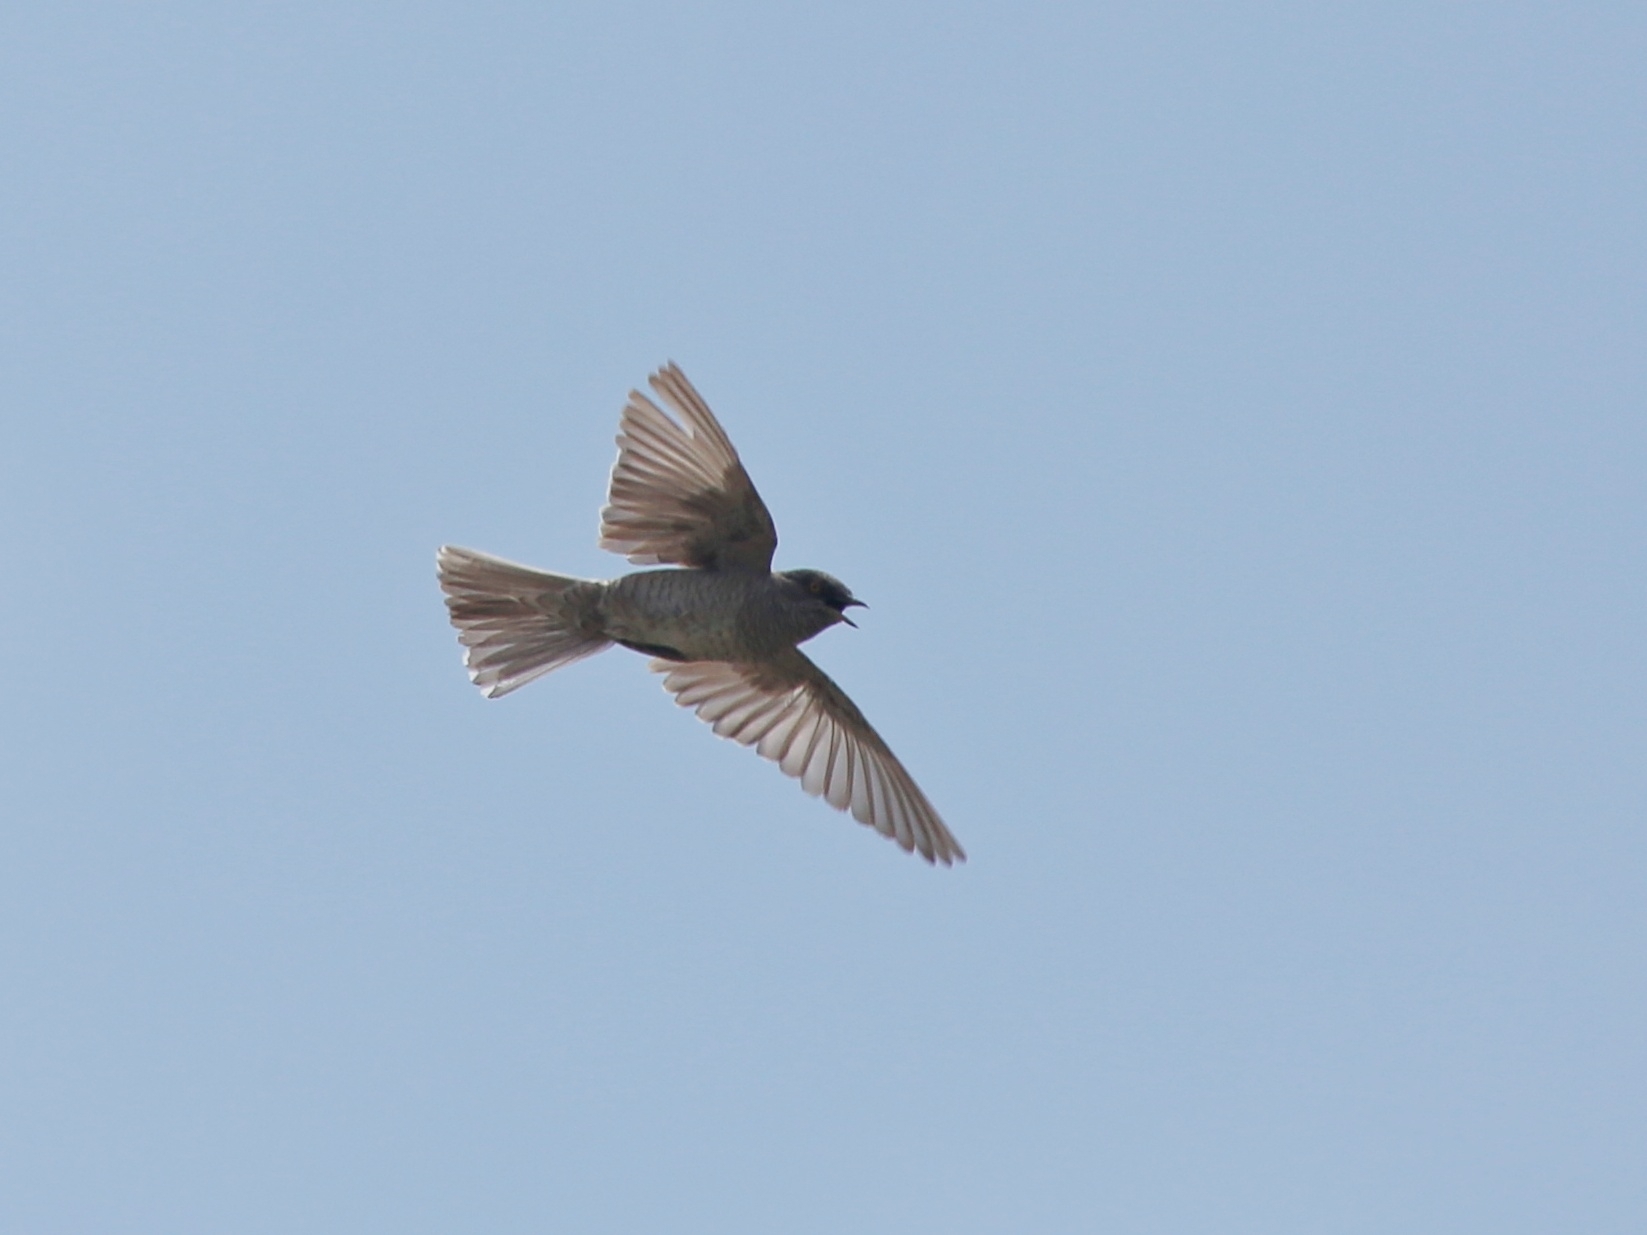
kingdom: Animalia
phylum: Chordata
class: Aves
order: Passeriformes
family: Sylviidae
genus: Sylvia
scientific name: Sylvia nisoria
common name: Barred warbler
